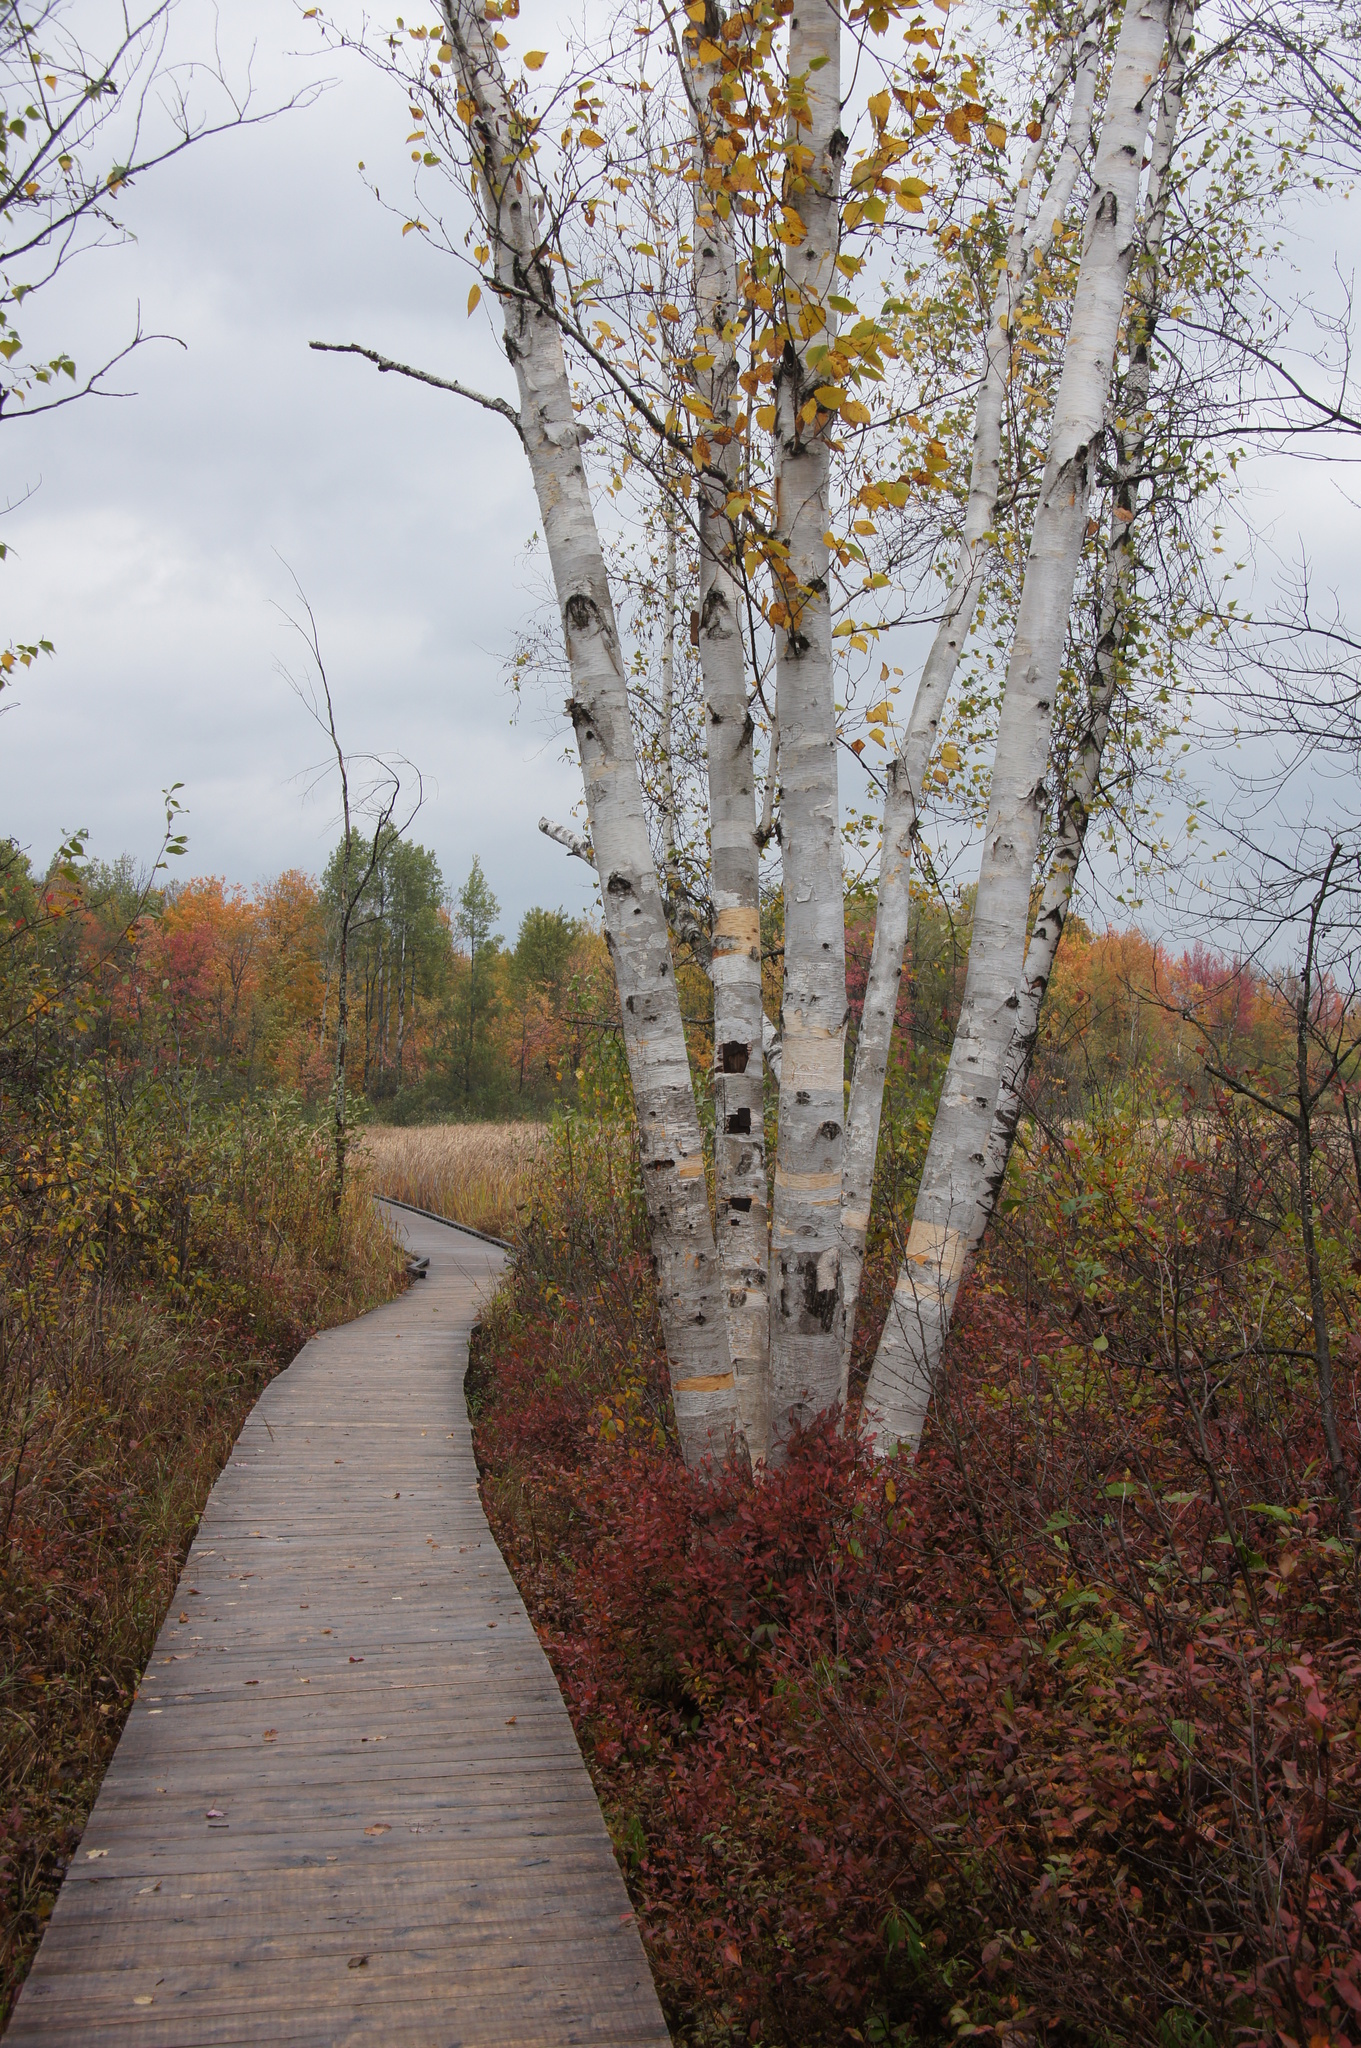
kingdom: Plantae
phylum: Tracheophyta
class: Magnoliopsida
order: Fagales
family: Betulaceae
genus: Betula
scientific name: Betula papyrifera
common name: Paper birch
